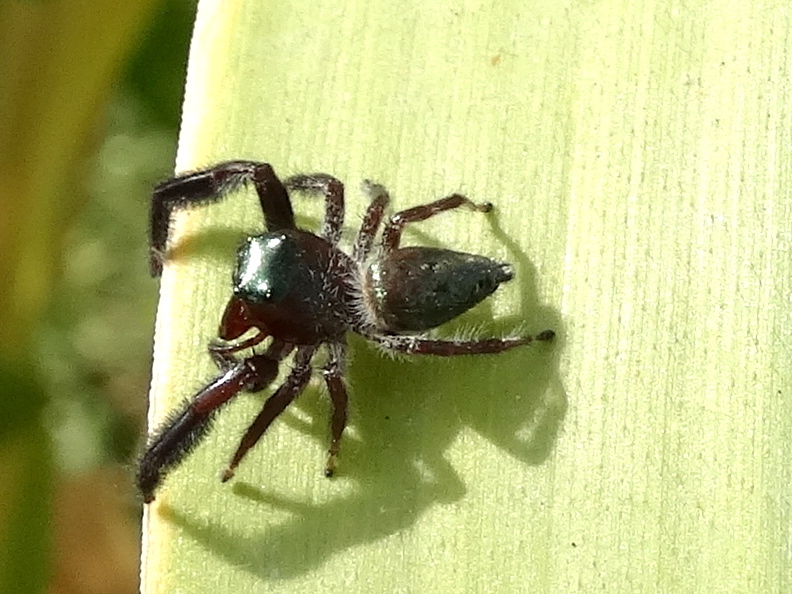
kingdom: Animalia
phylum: Arthropoda
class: Arachnida
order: Araneae
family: Salticidae
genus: Paraphidippus
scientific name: Paraphidippus
